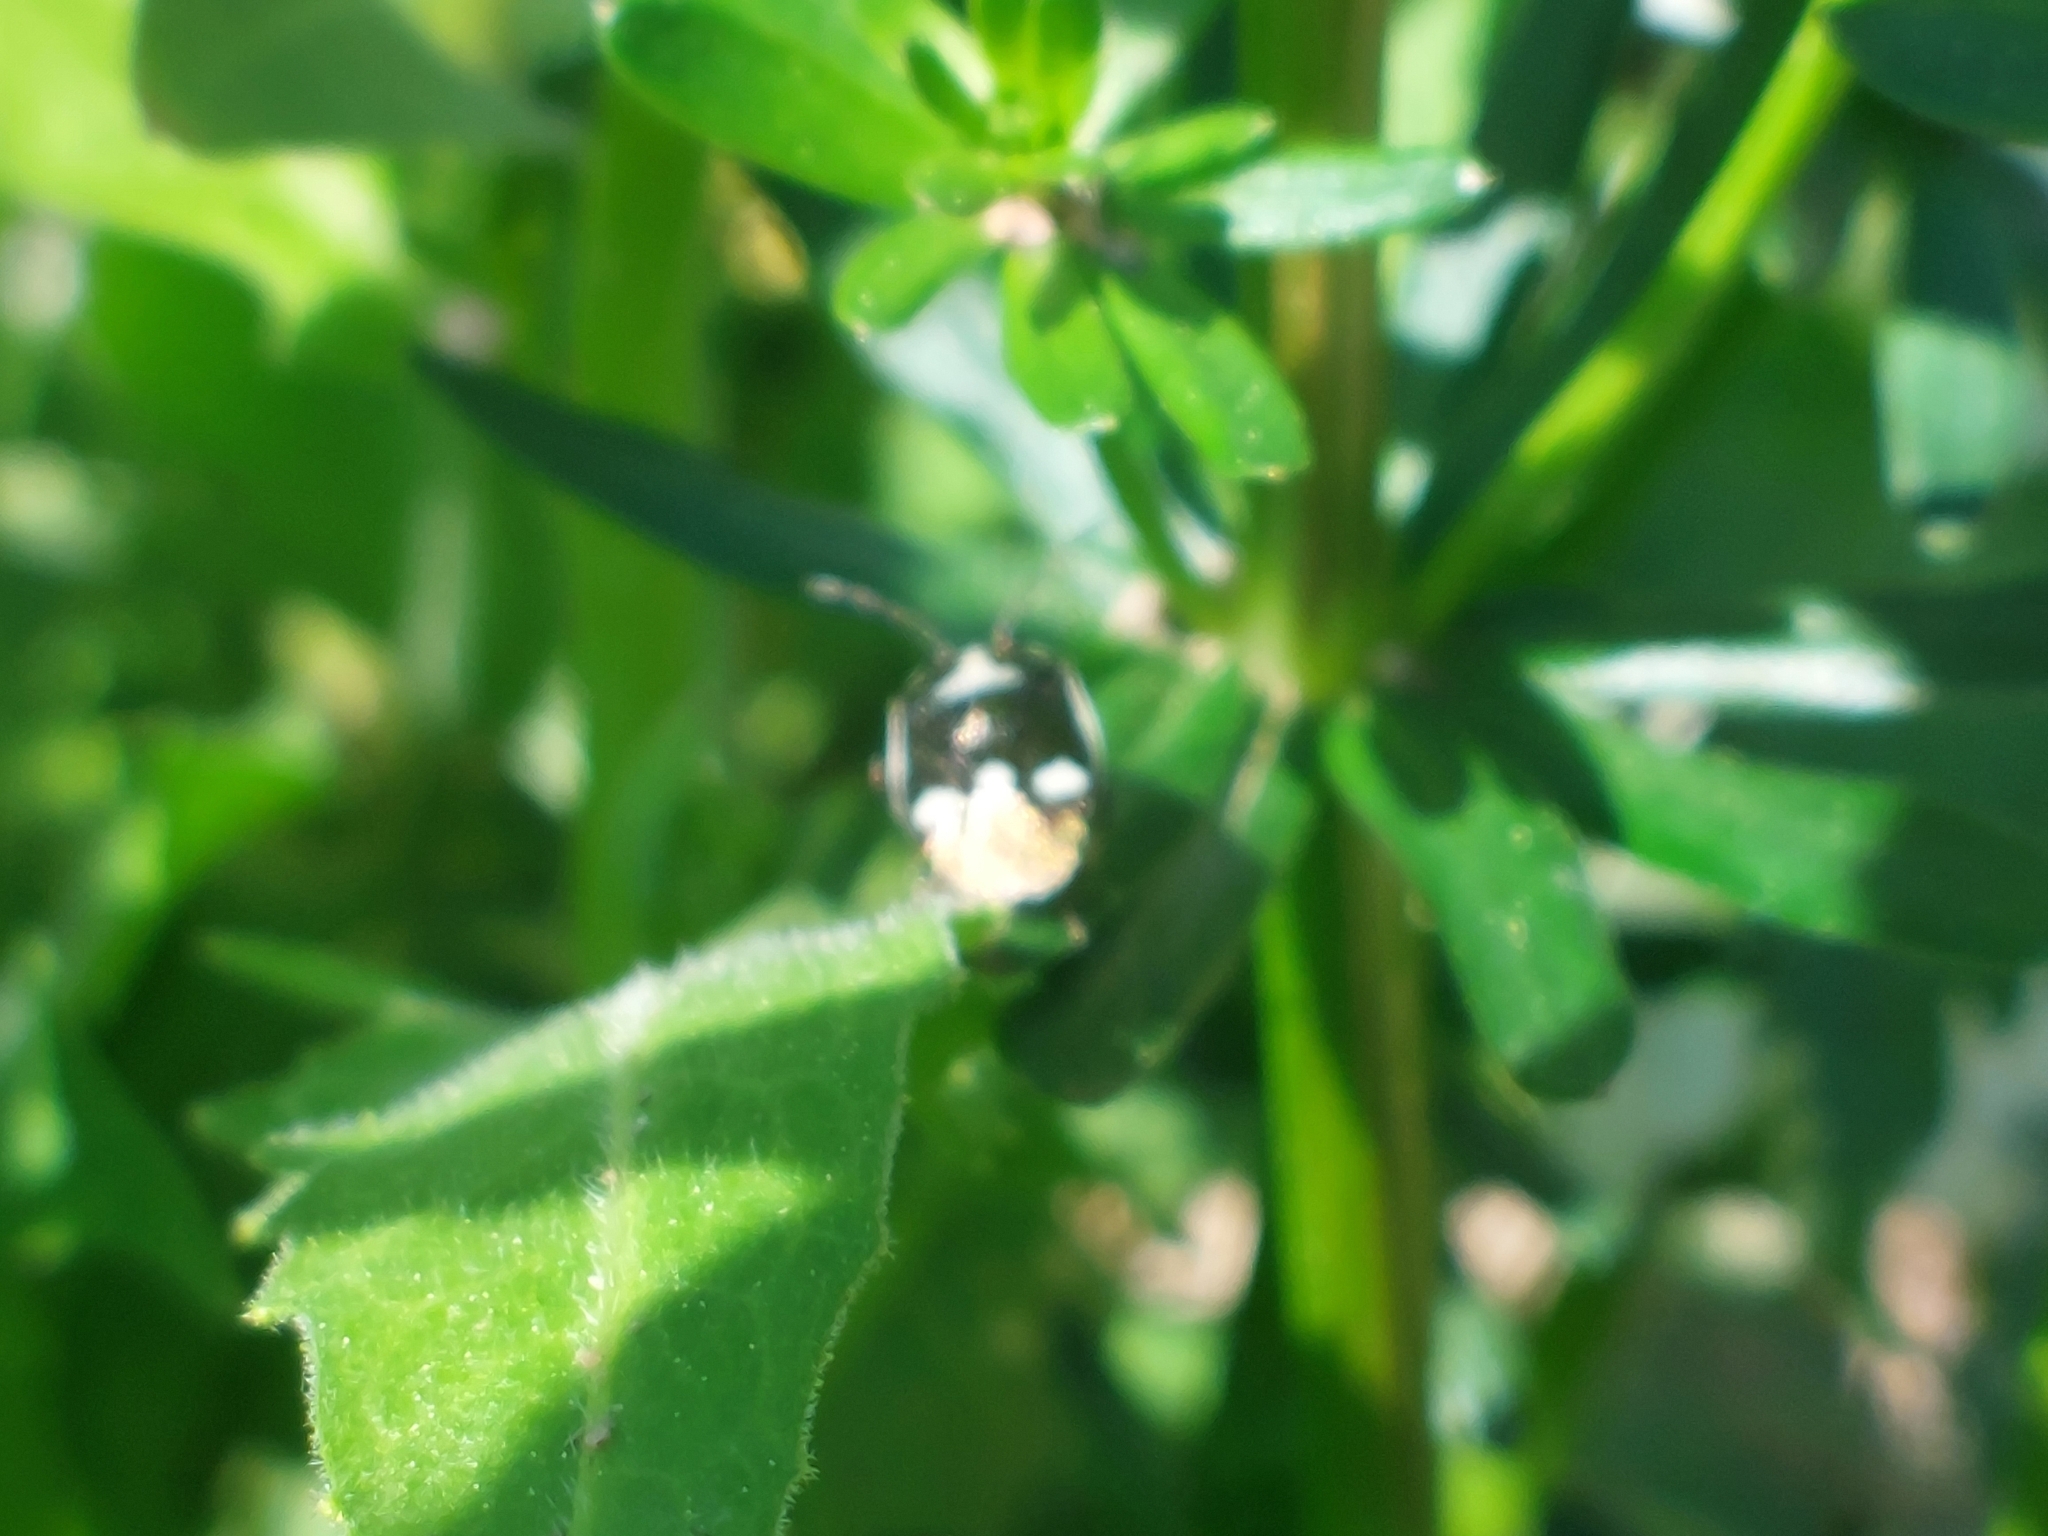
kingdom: Animalia
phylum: Arthropoda
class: Insecta
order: Hemiptera
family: Pentatomidae
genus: Eurydema
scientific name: Eurydema oleracea
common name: Cabbage bug
